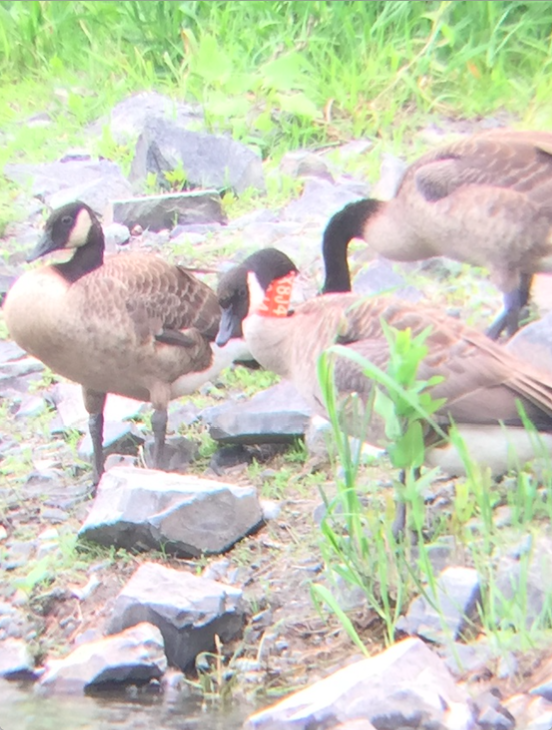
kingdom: Animalia
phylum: Chordata
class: Aves
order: Anseriformes
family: Anatidae
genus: Branta
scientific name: Branta canadensis
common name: Canada goose
